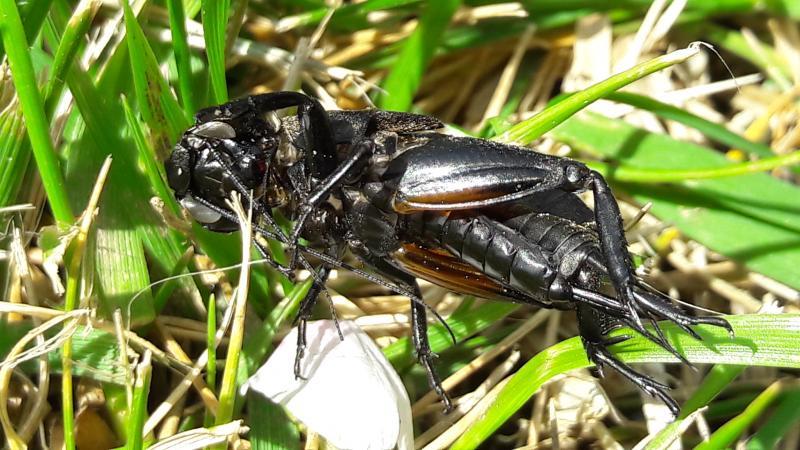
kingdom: Animalia
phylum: Arthropoda
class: Insecta
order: Orthoptera
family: Gryllidae
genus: Gryllus
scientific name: Gryllus campestris
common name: Field cricket
